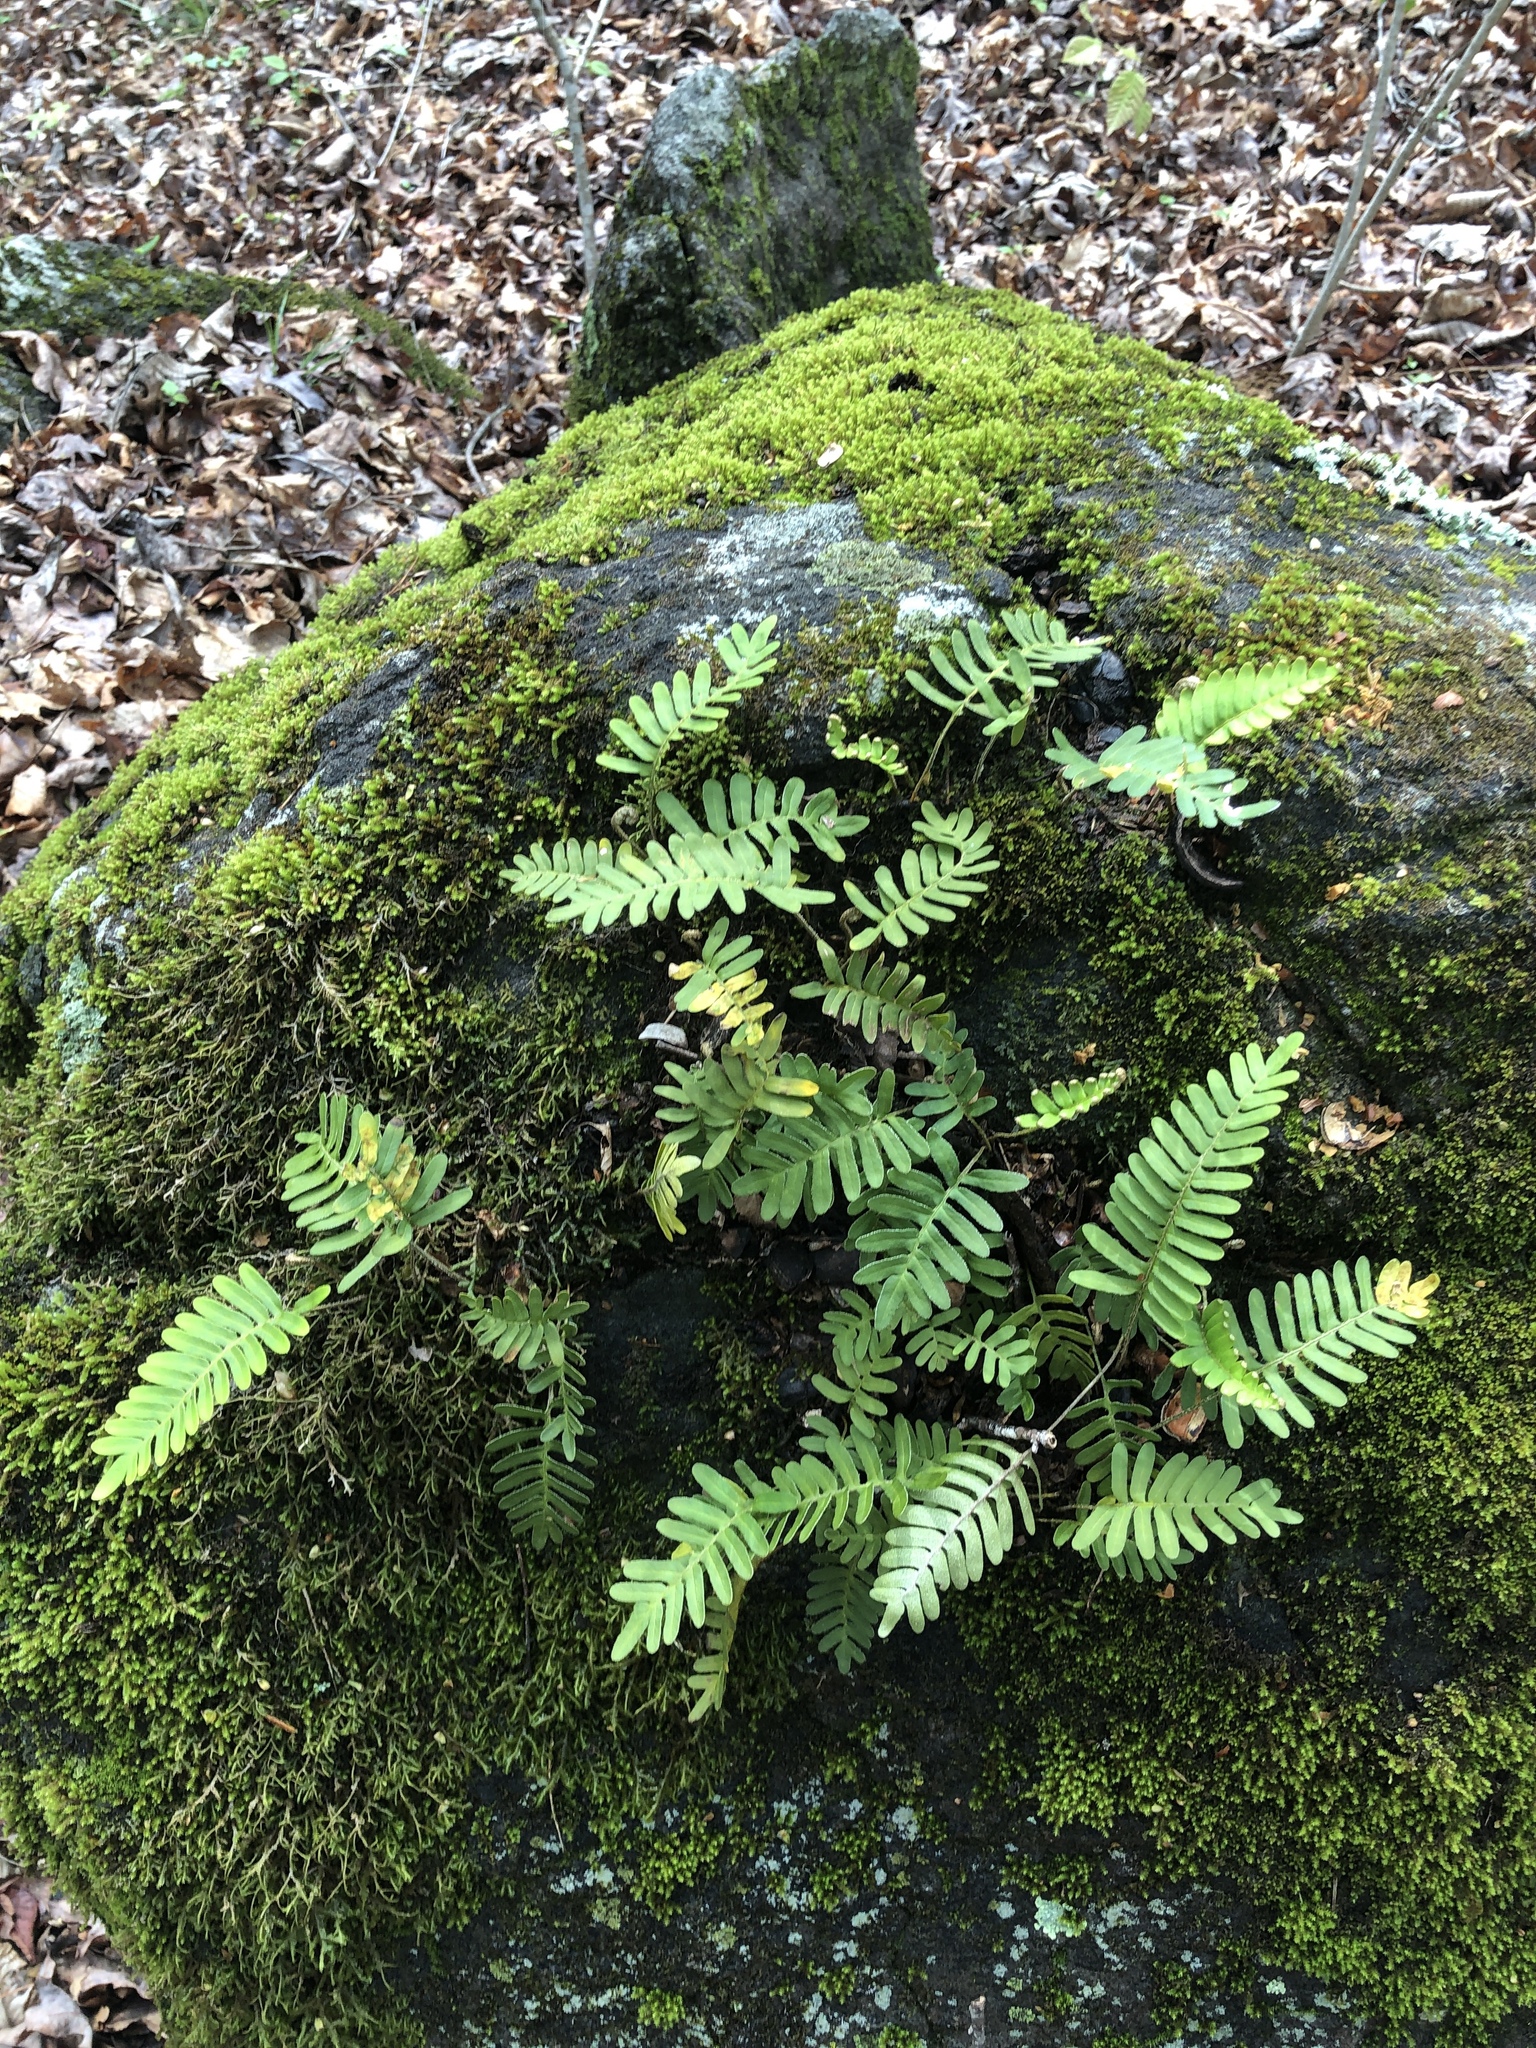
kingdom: Plantae
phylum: Tracheophyta
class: Polypodiopsida
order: Polypodiales
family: Polypodiaceae
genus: Pleopeltis
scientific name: Pleopeltis michauxiana
